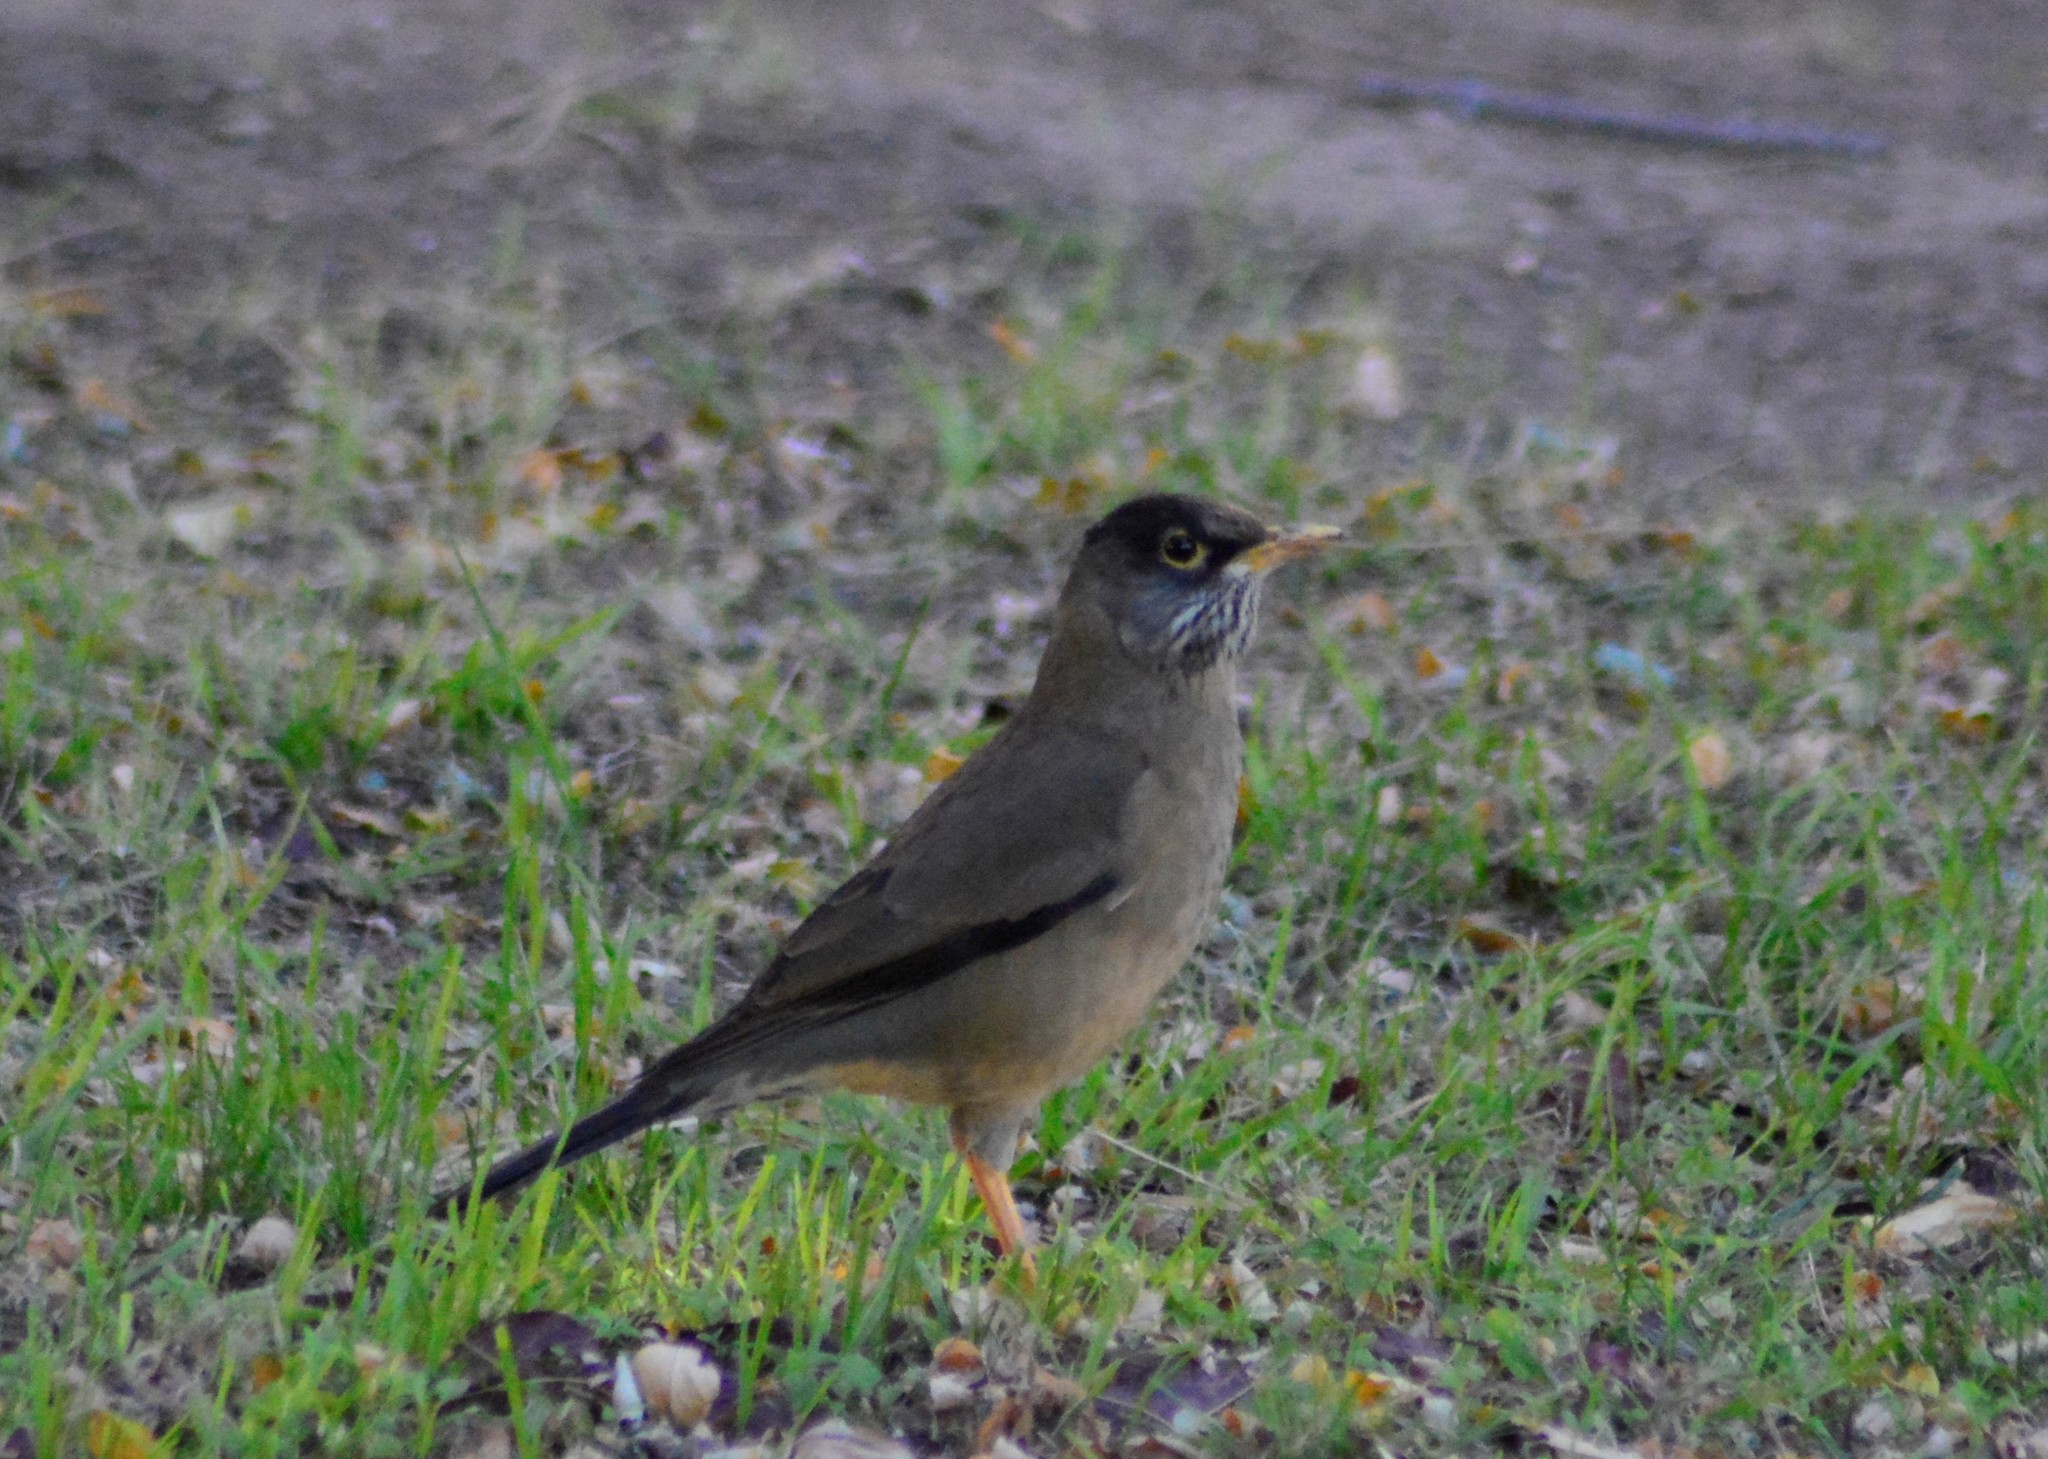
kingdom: Animalia
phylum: Chordata
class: Aves
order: Passeriformes
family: Turdidae
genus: Turdus
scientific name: Turdus falcklandii
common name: Austral thrush
